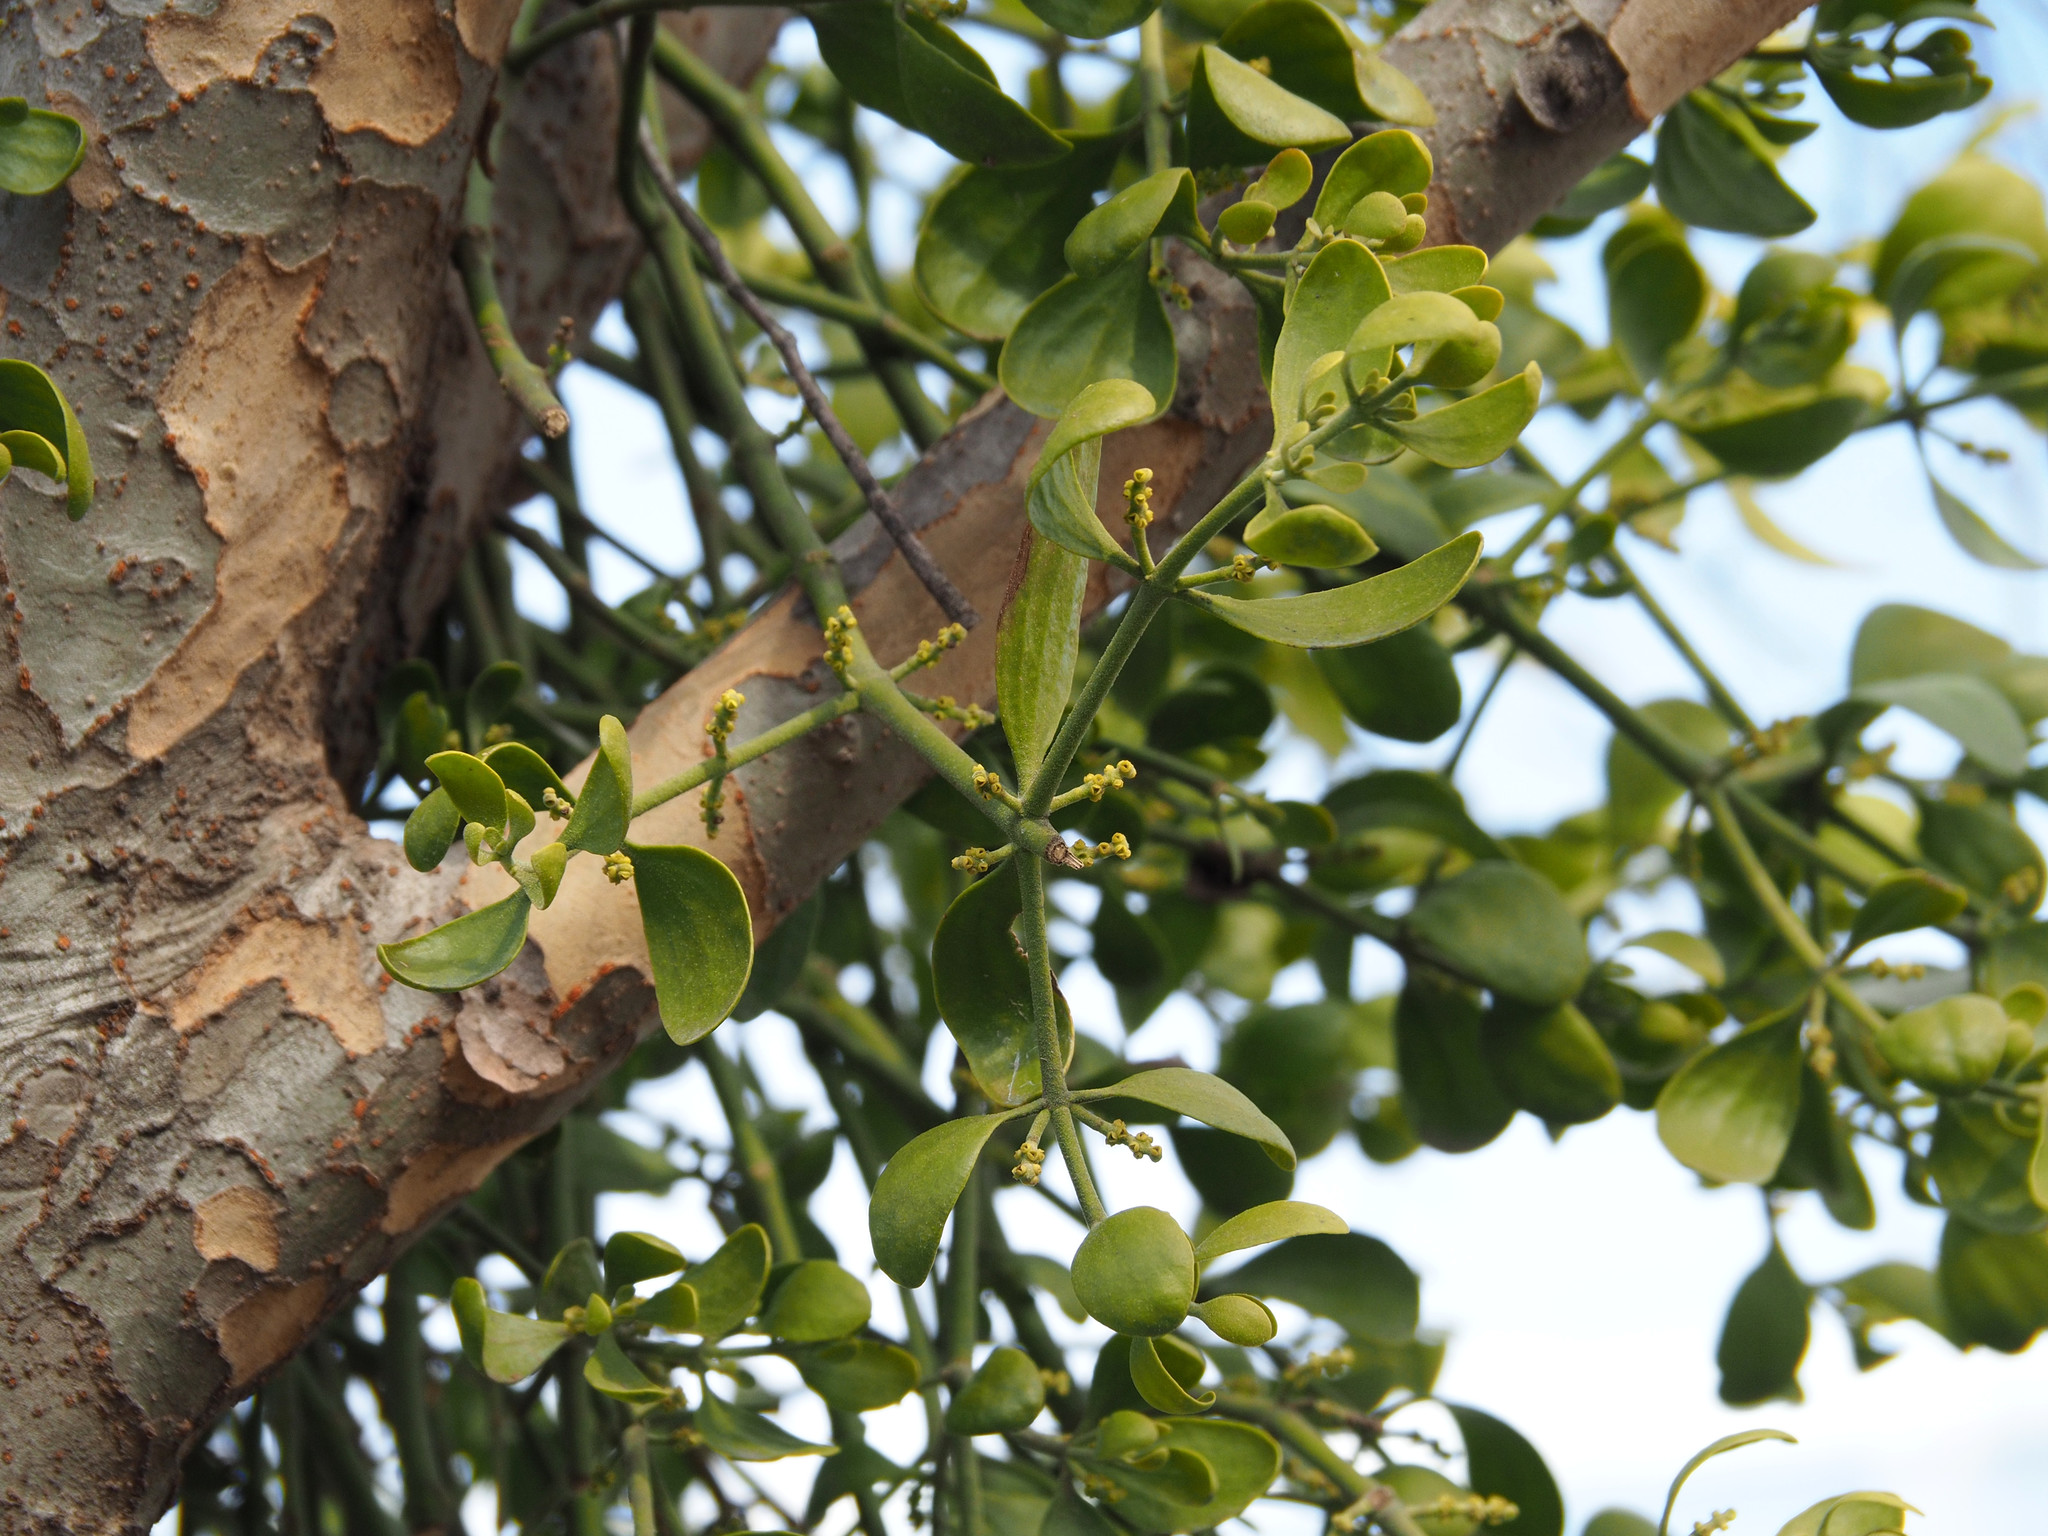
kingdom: Plantae
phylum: Tracheophyta
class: Magnoliopsida
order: Santalales
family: Viscaceae
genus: Phoradendron
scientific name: Phoradendron leucarpum
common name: Pacific mistletoe
